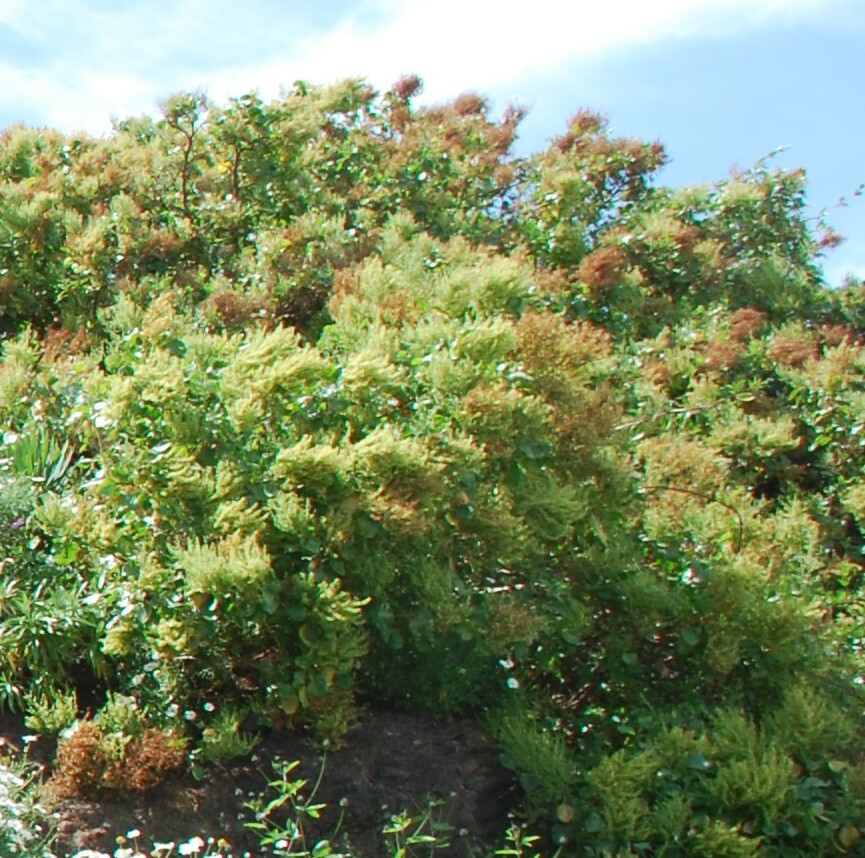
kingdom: Plantae
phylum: Tracheophyta
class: Magnoliopsida
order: Caryophyllales
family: Polygonaceae
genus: Rumex
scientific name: Rumex lunaria
